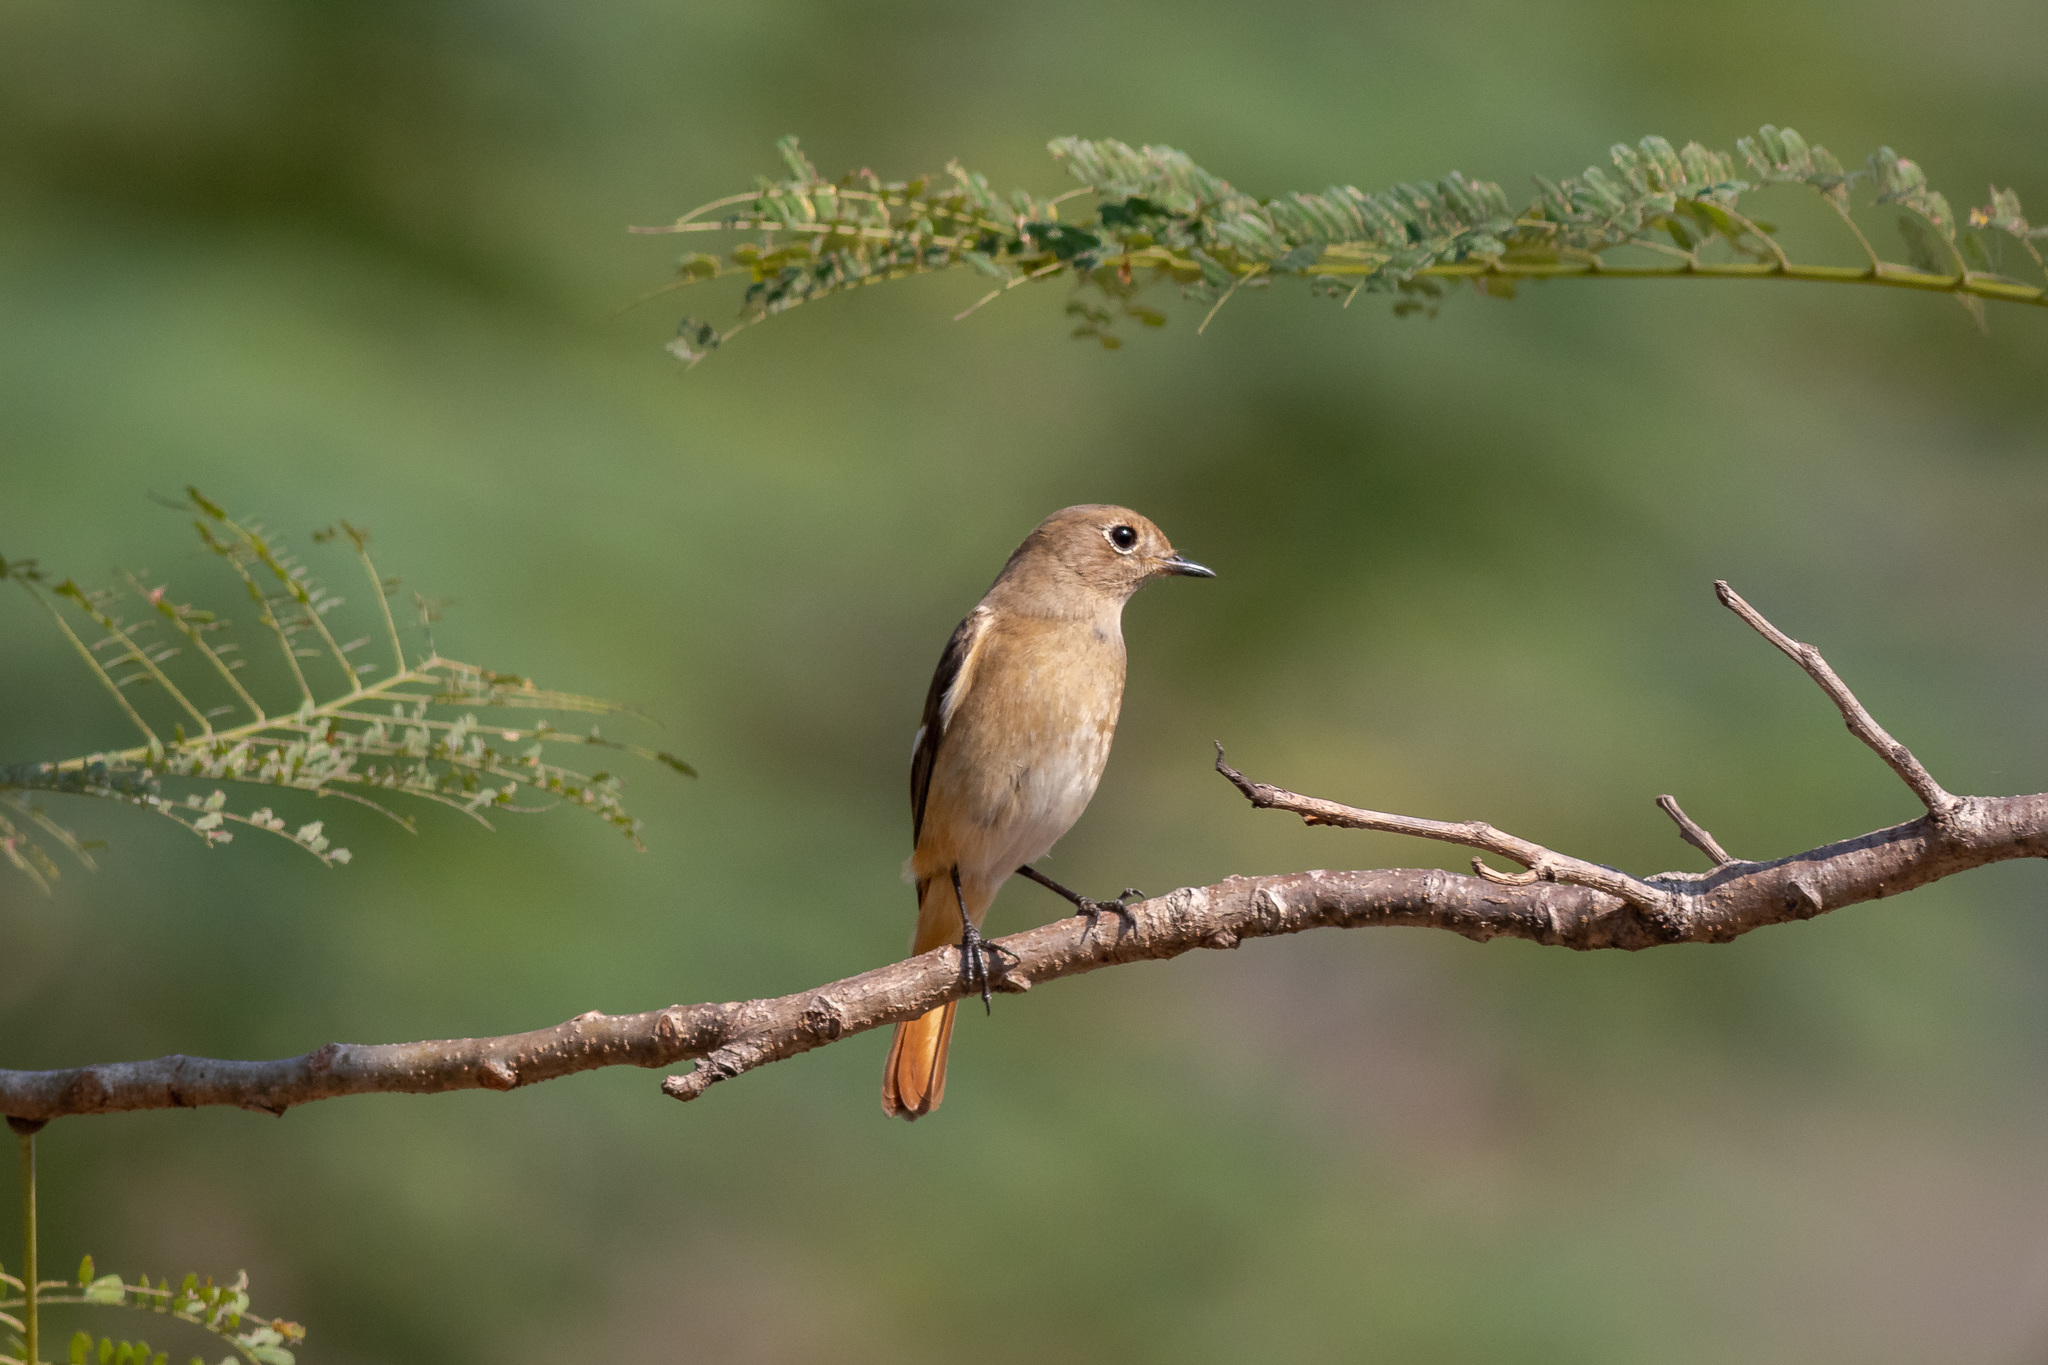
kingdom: Animalia
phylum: Chordata
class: Aves
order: Passeriformes
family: Muscicapidae
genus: Phoenicurus
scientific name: Phoenicurus auroreus
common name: Daurian redstart
